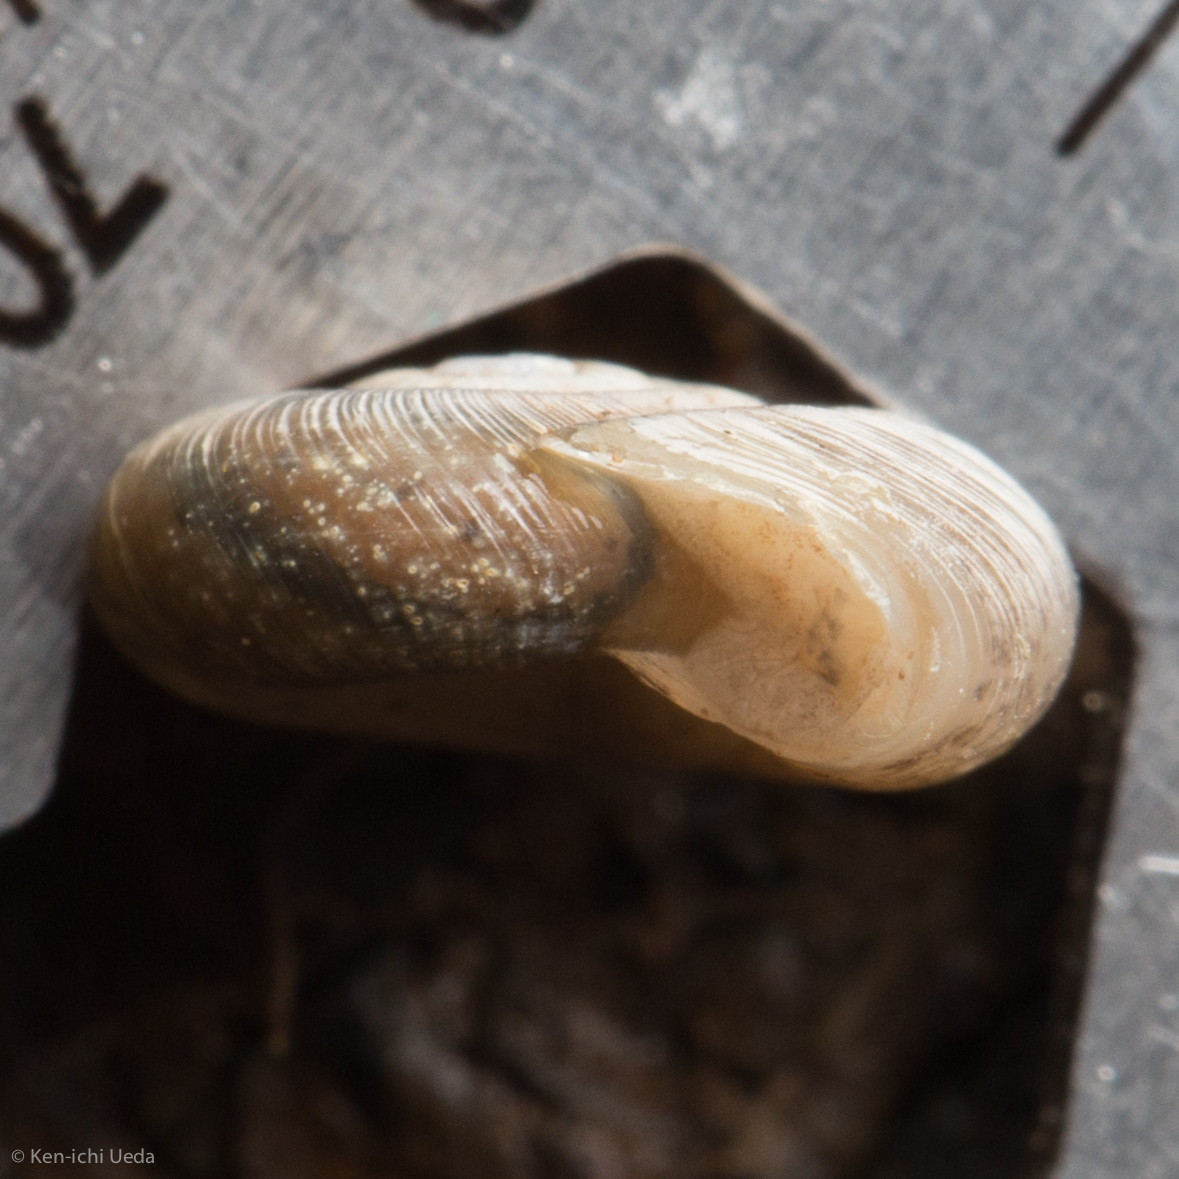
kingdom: Animalia
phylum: Mollusca
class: Gastropoda
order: Stylommatophora
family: Haplotrematidae
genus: Haplotrema
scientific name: Haplotrema mokelumnense
